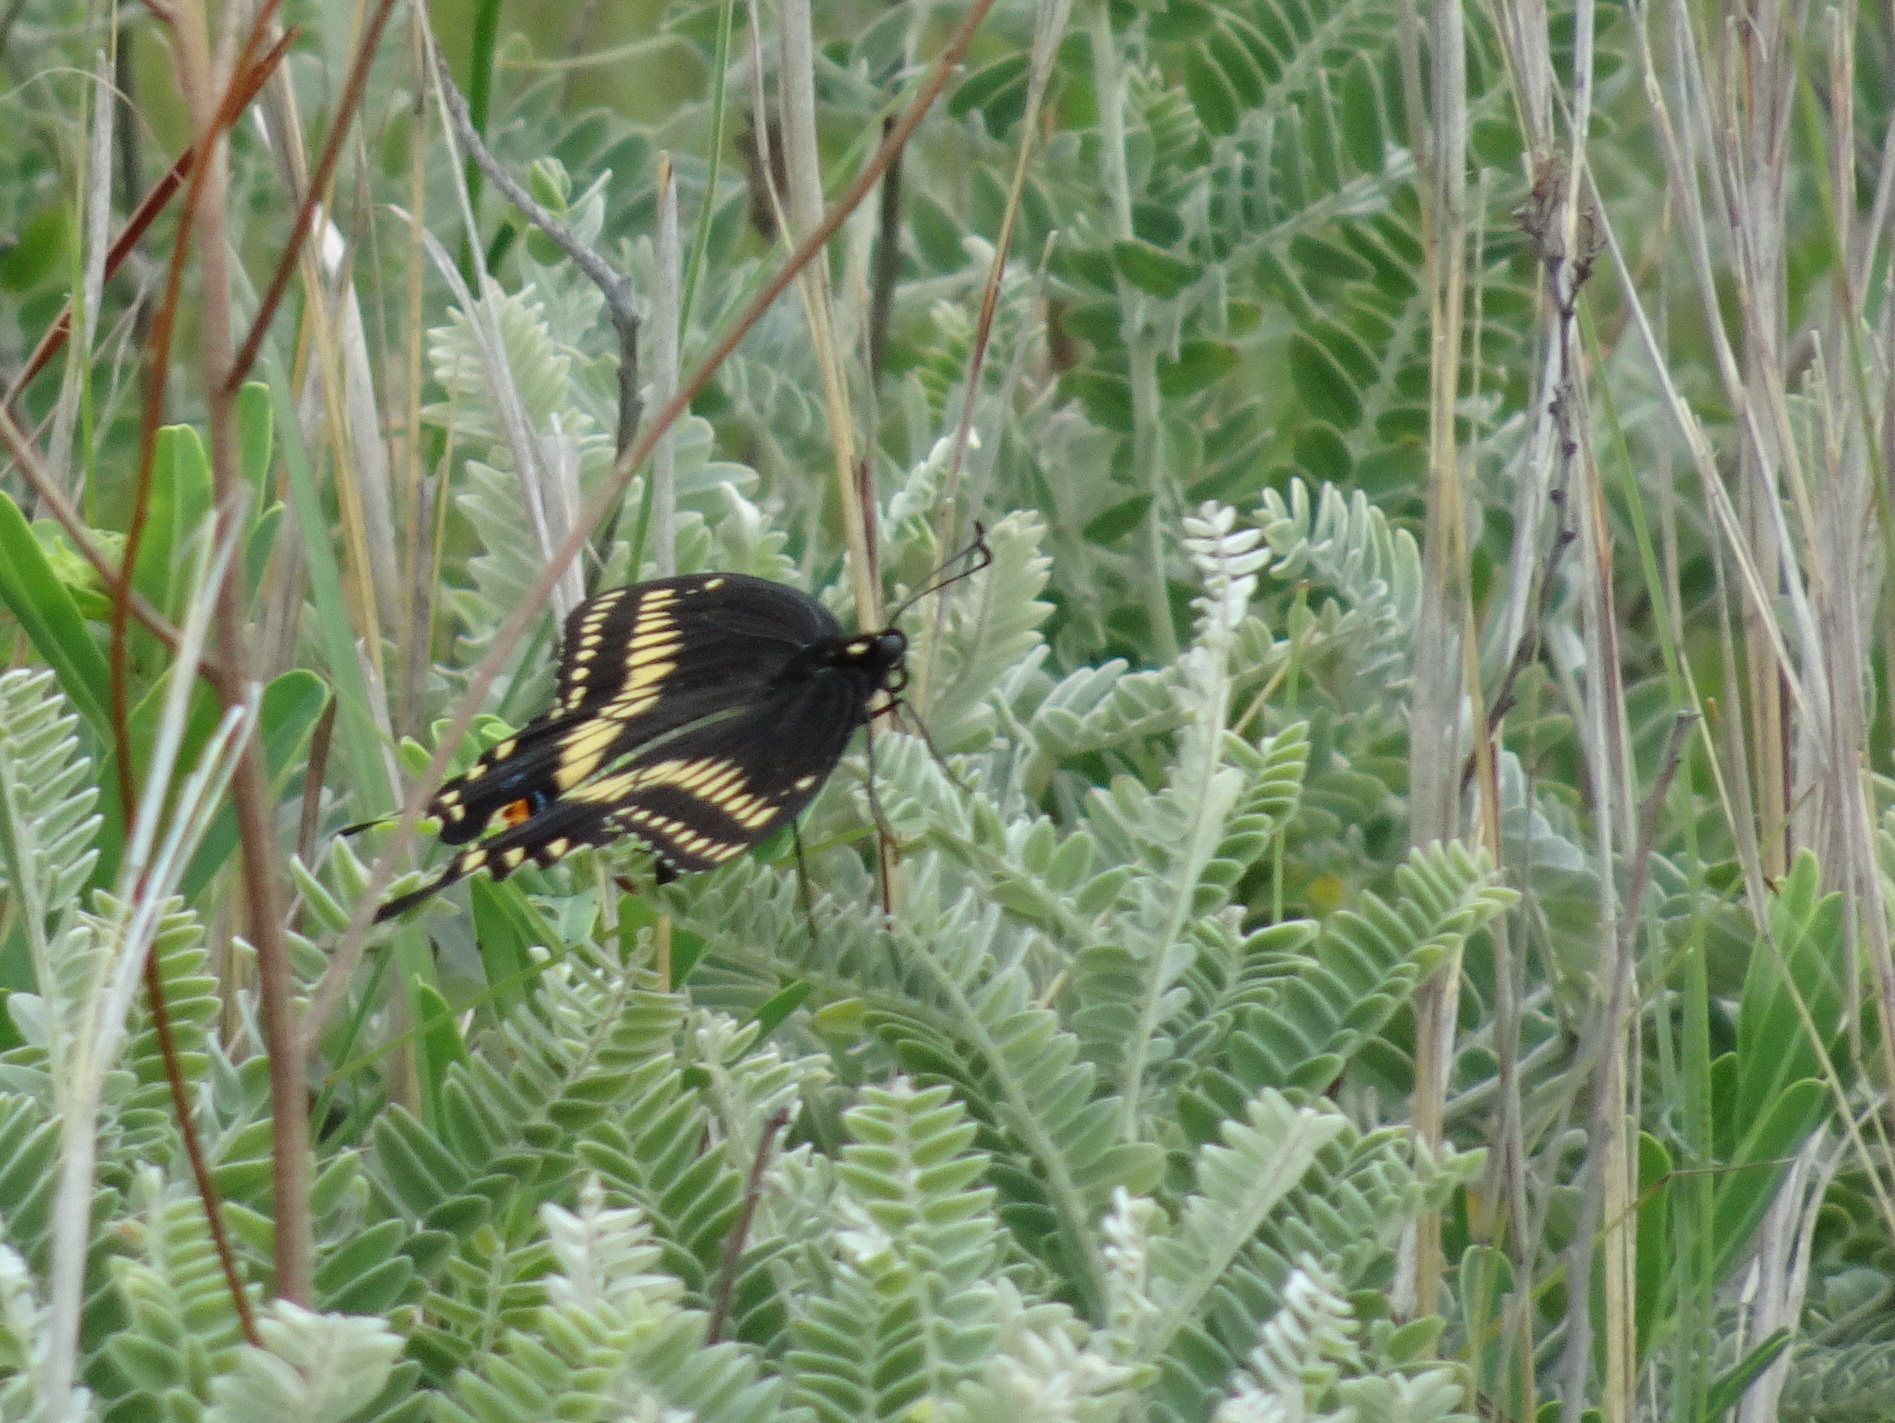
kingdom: Animalia
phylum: Arthropoda
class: Insecta
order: Lepidoptera
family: Papilionidae
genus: Papilio
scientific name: Papilio polyxenes
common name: Black swallowtail
